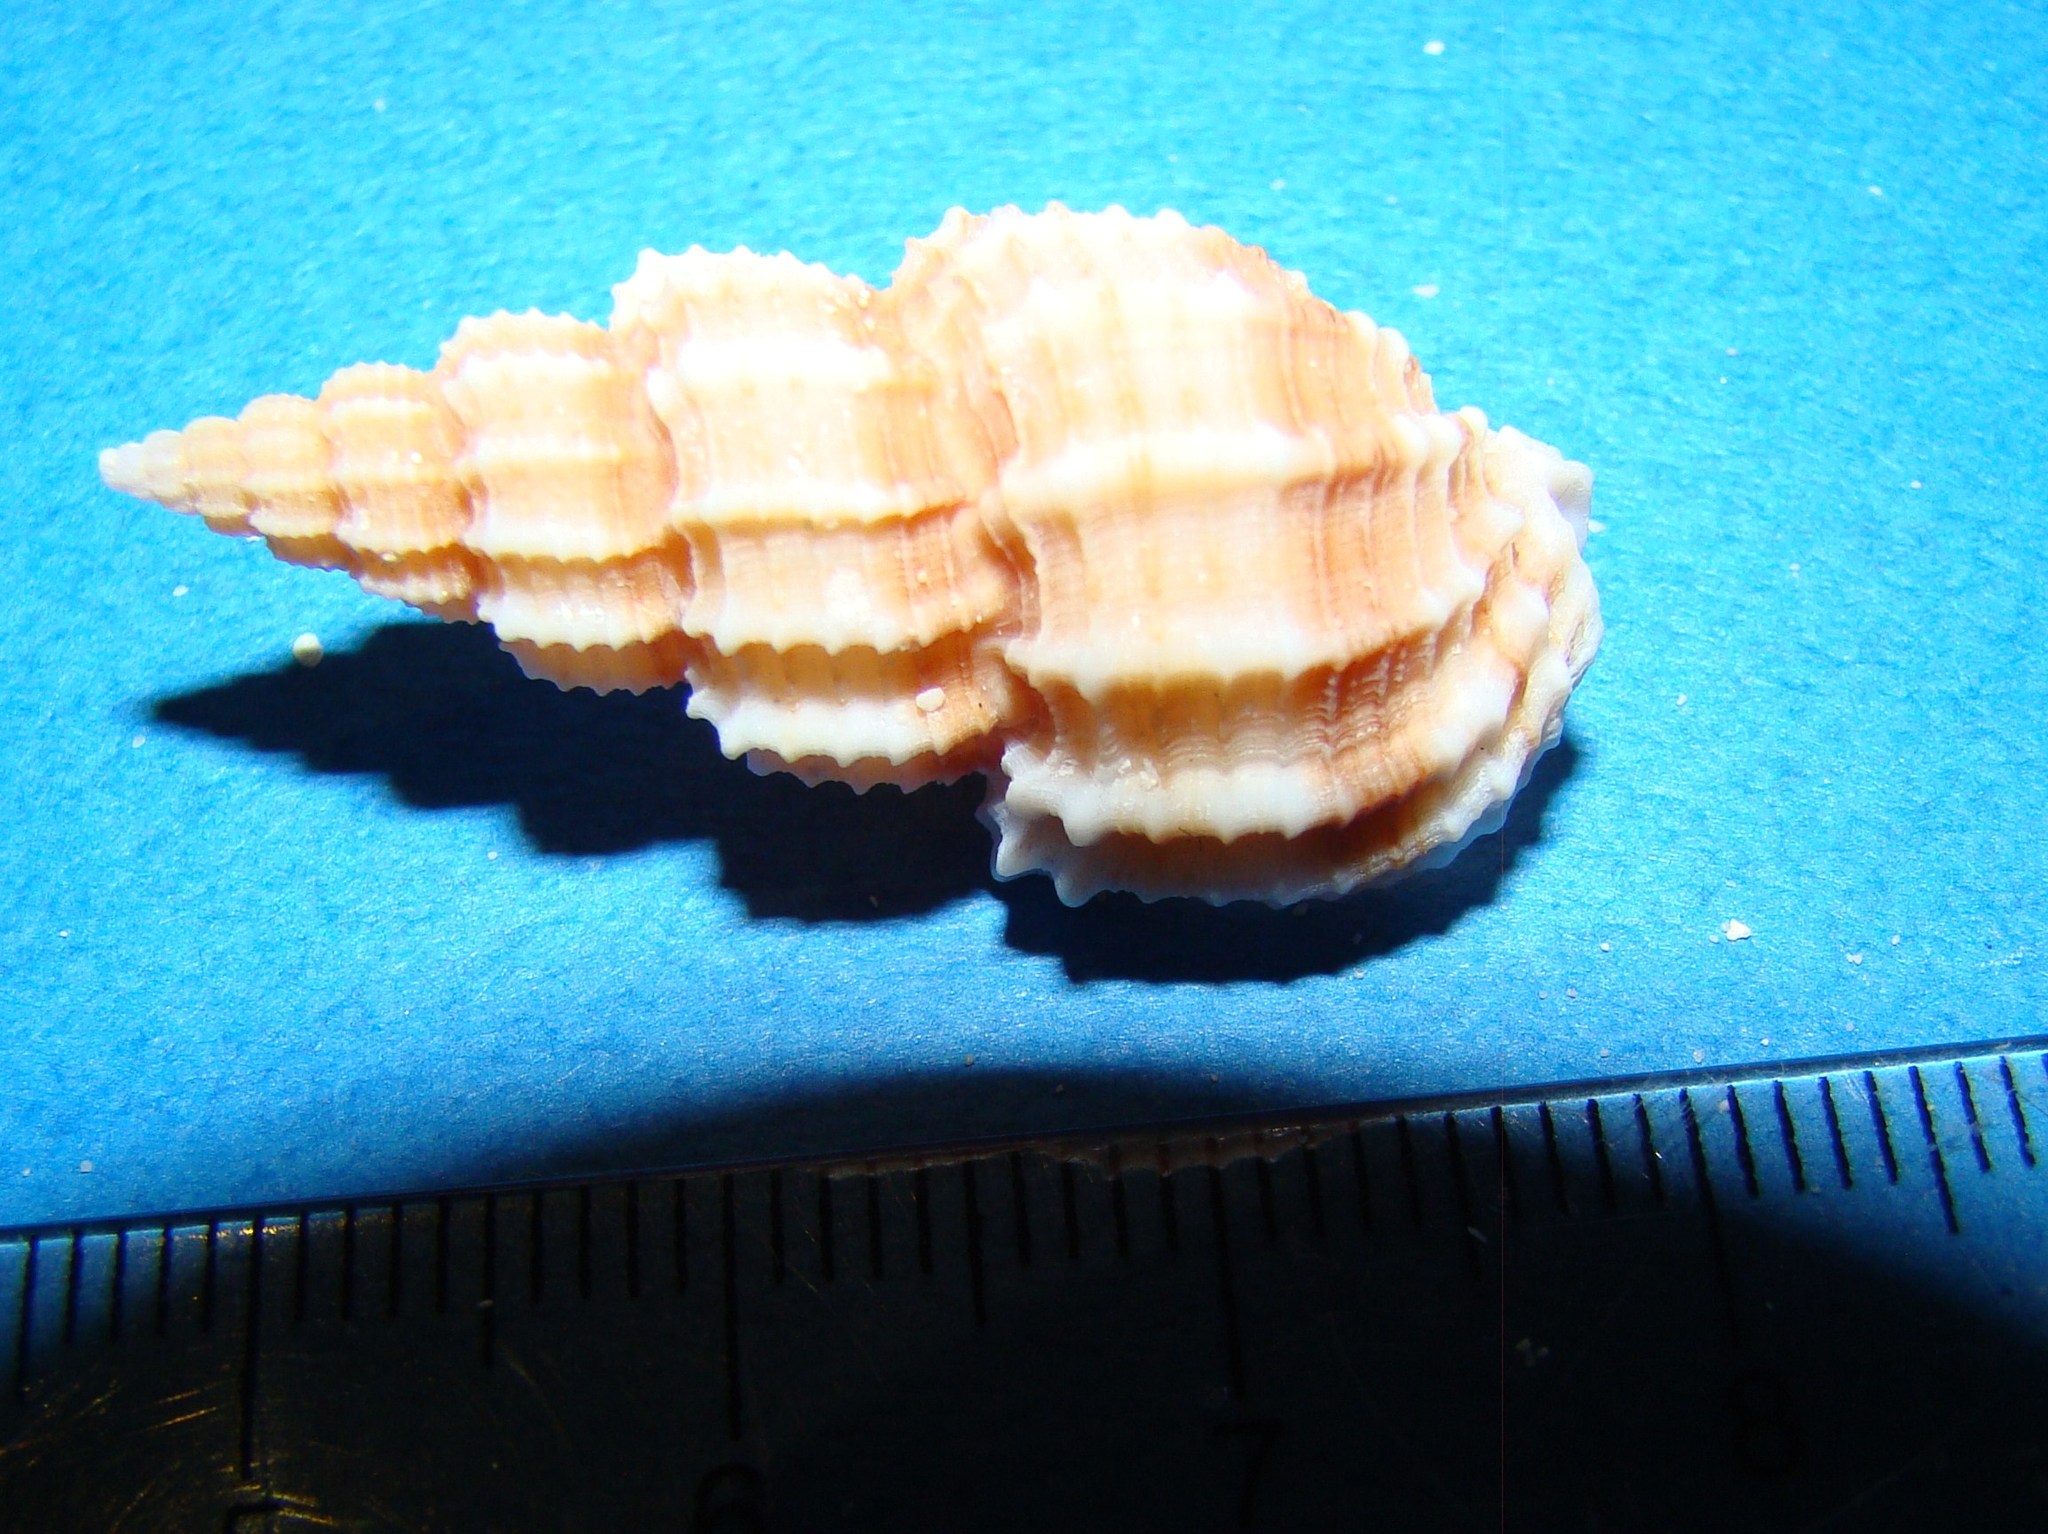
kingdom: Animalia
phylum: Mollusca
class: Gastropoda
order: Neogastropoda
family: Nassariidae
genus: Phos
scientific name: Phos senticosus
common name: Common pacific phos
